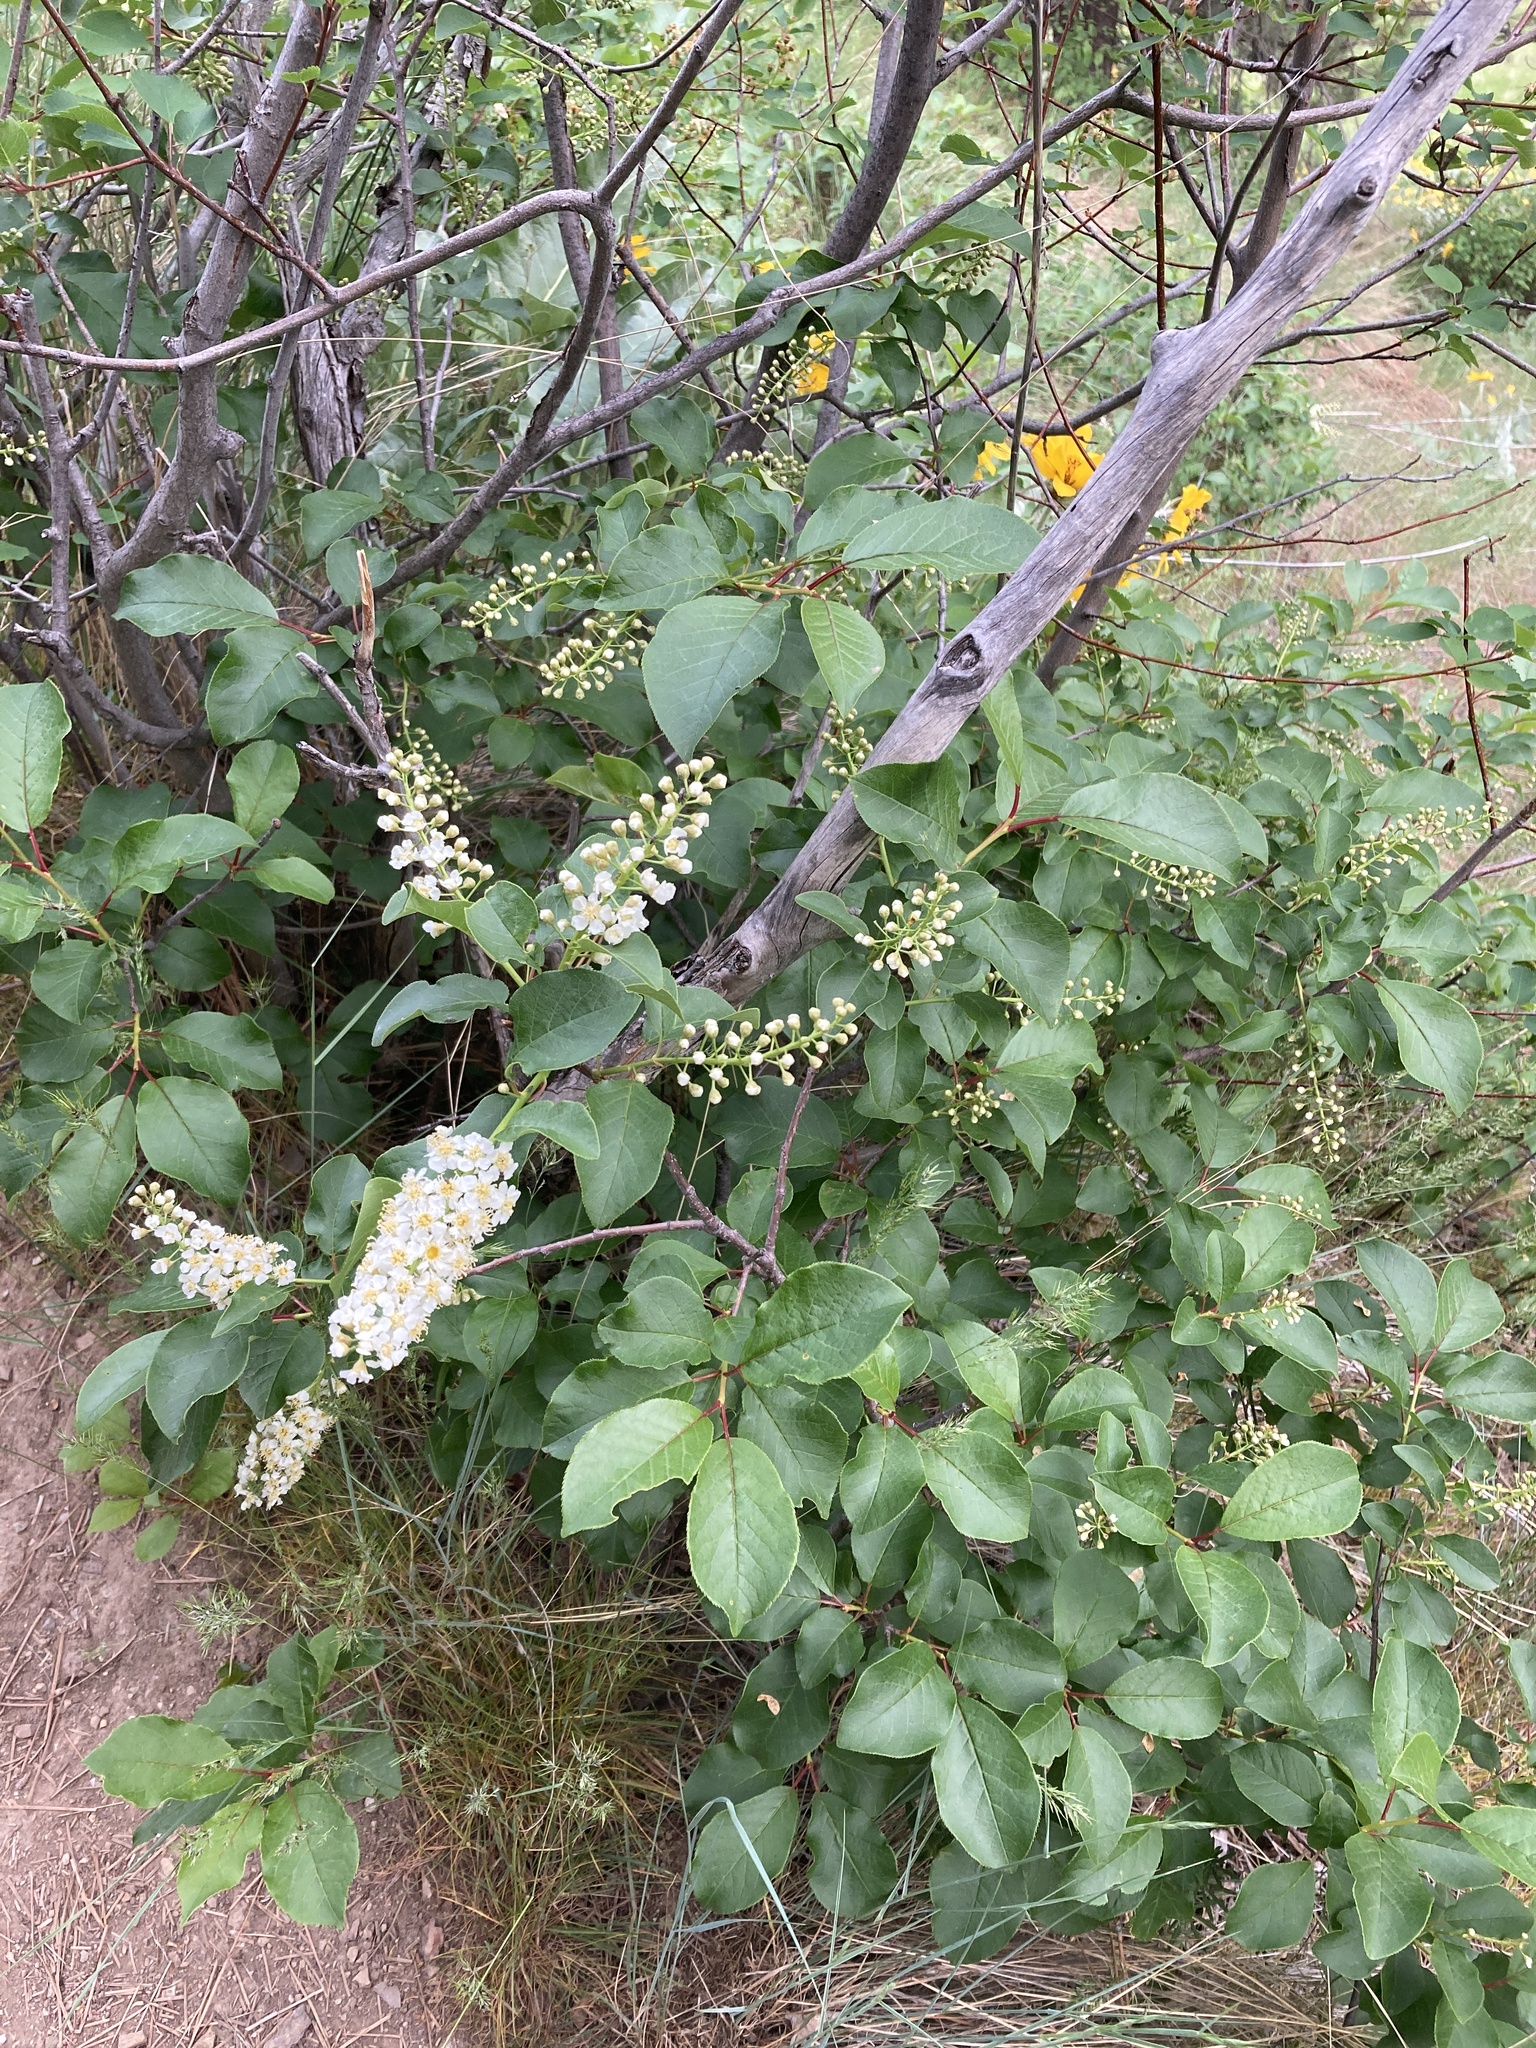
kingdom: Plantae
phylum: Tracheophyta
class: Magnoliopsida
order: Rosales
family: Rosaceae
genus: Prunus
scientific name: Prunus virginiana
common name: Chokecherry
